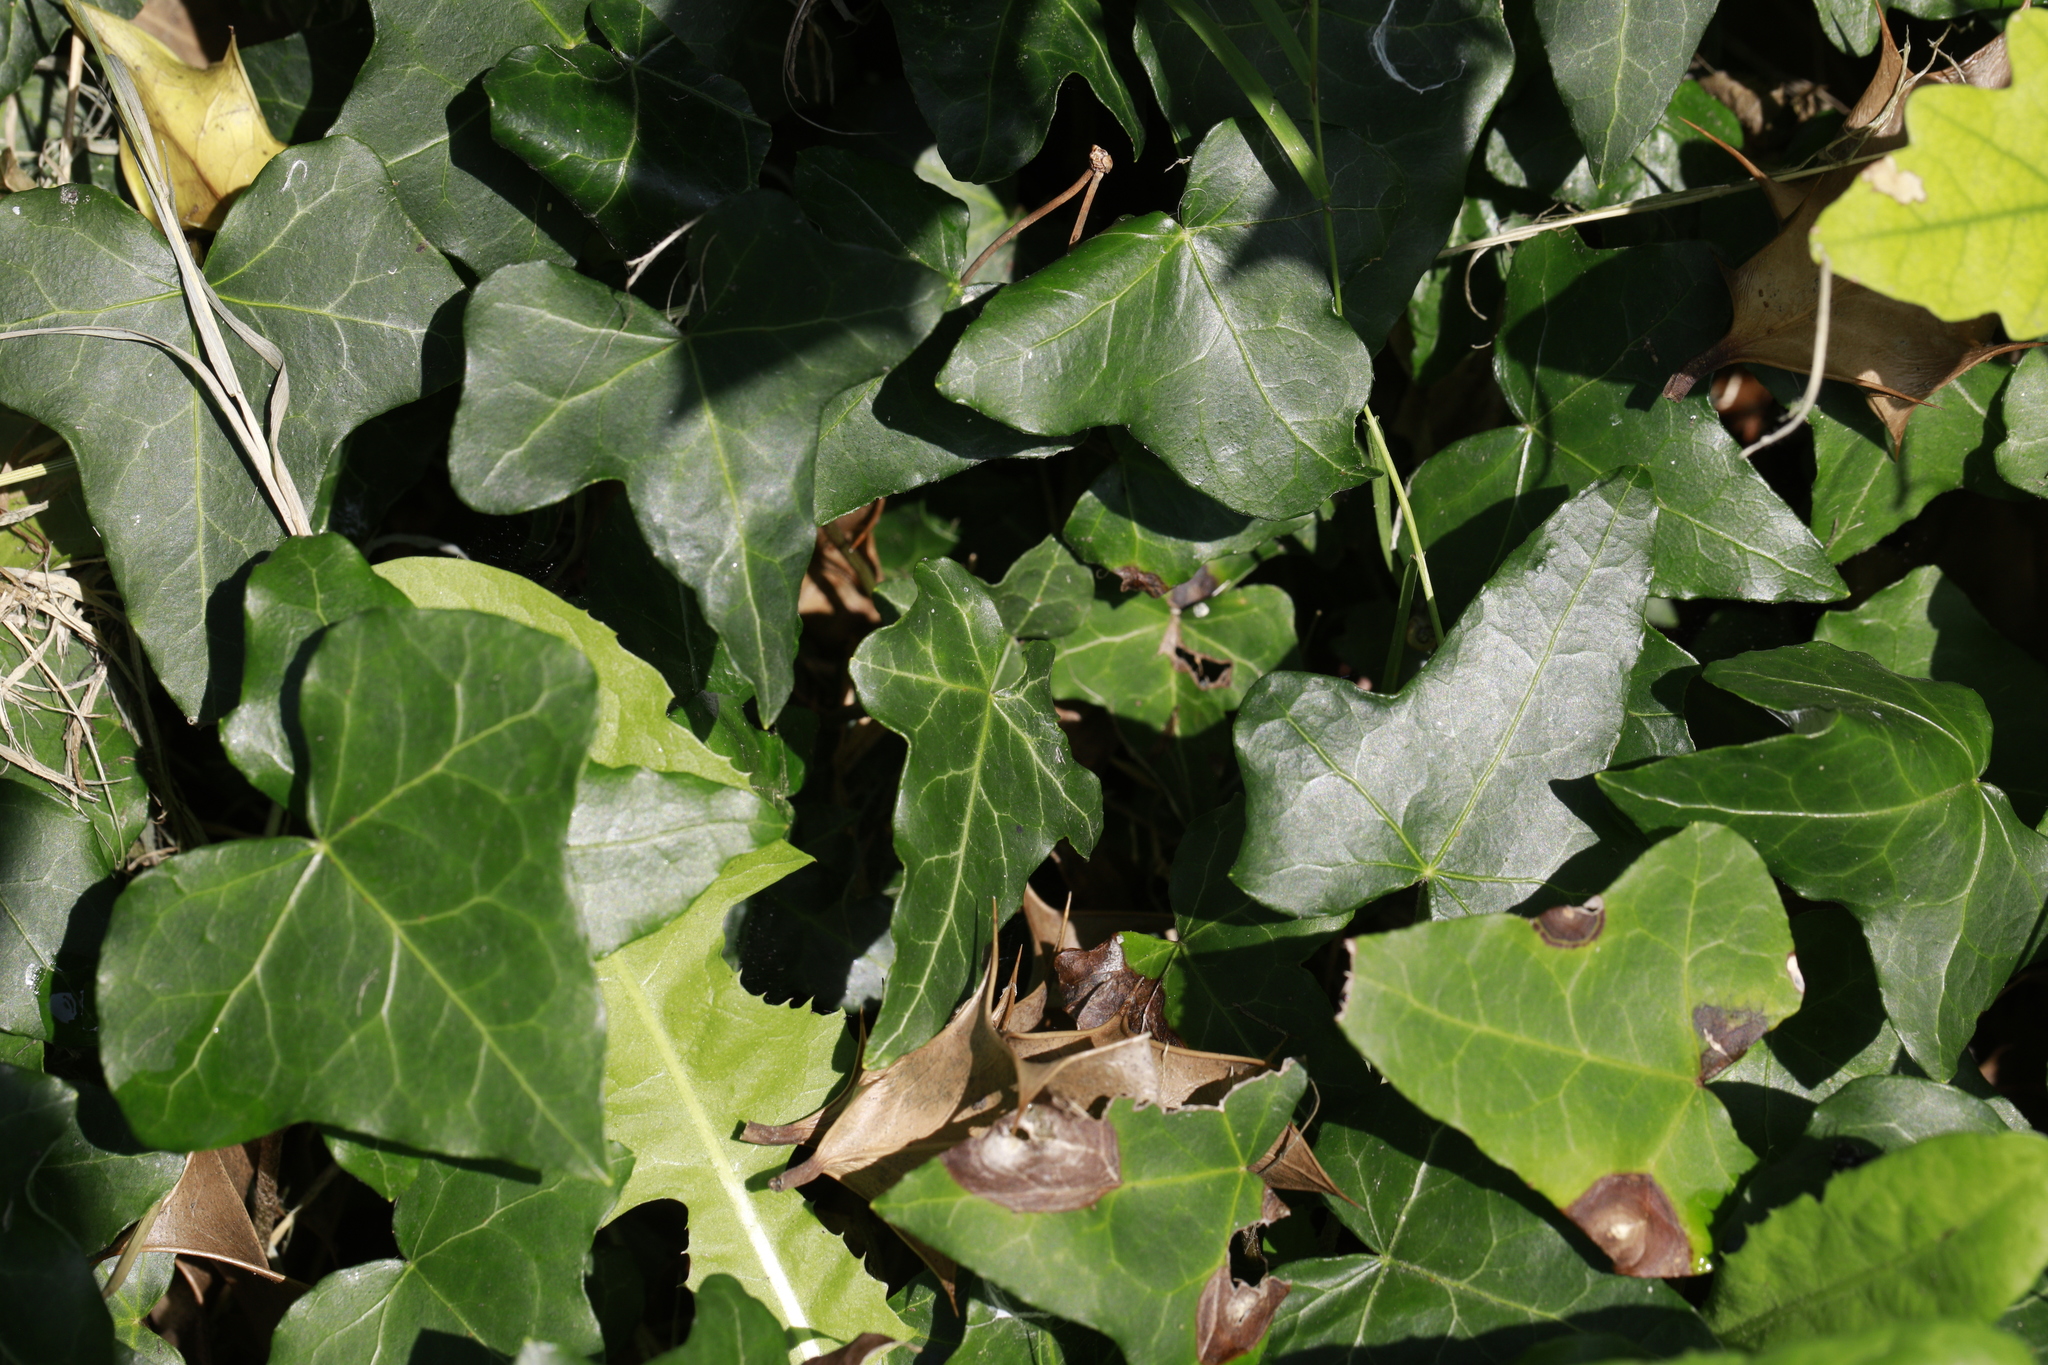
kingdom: Plantae
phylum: Tracheophyta
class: Magnoliopsida
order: Apiales
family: Araliaceae
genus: Hedera
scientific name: Hedera helix
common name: Ivy
